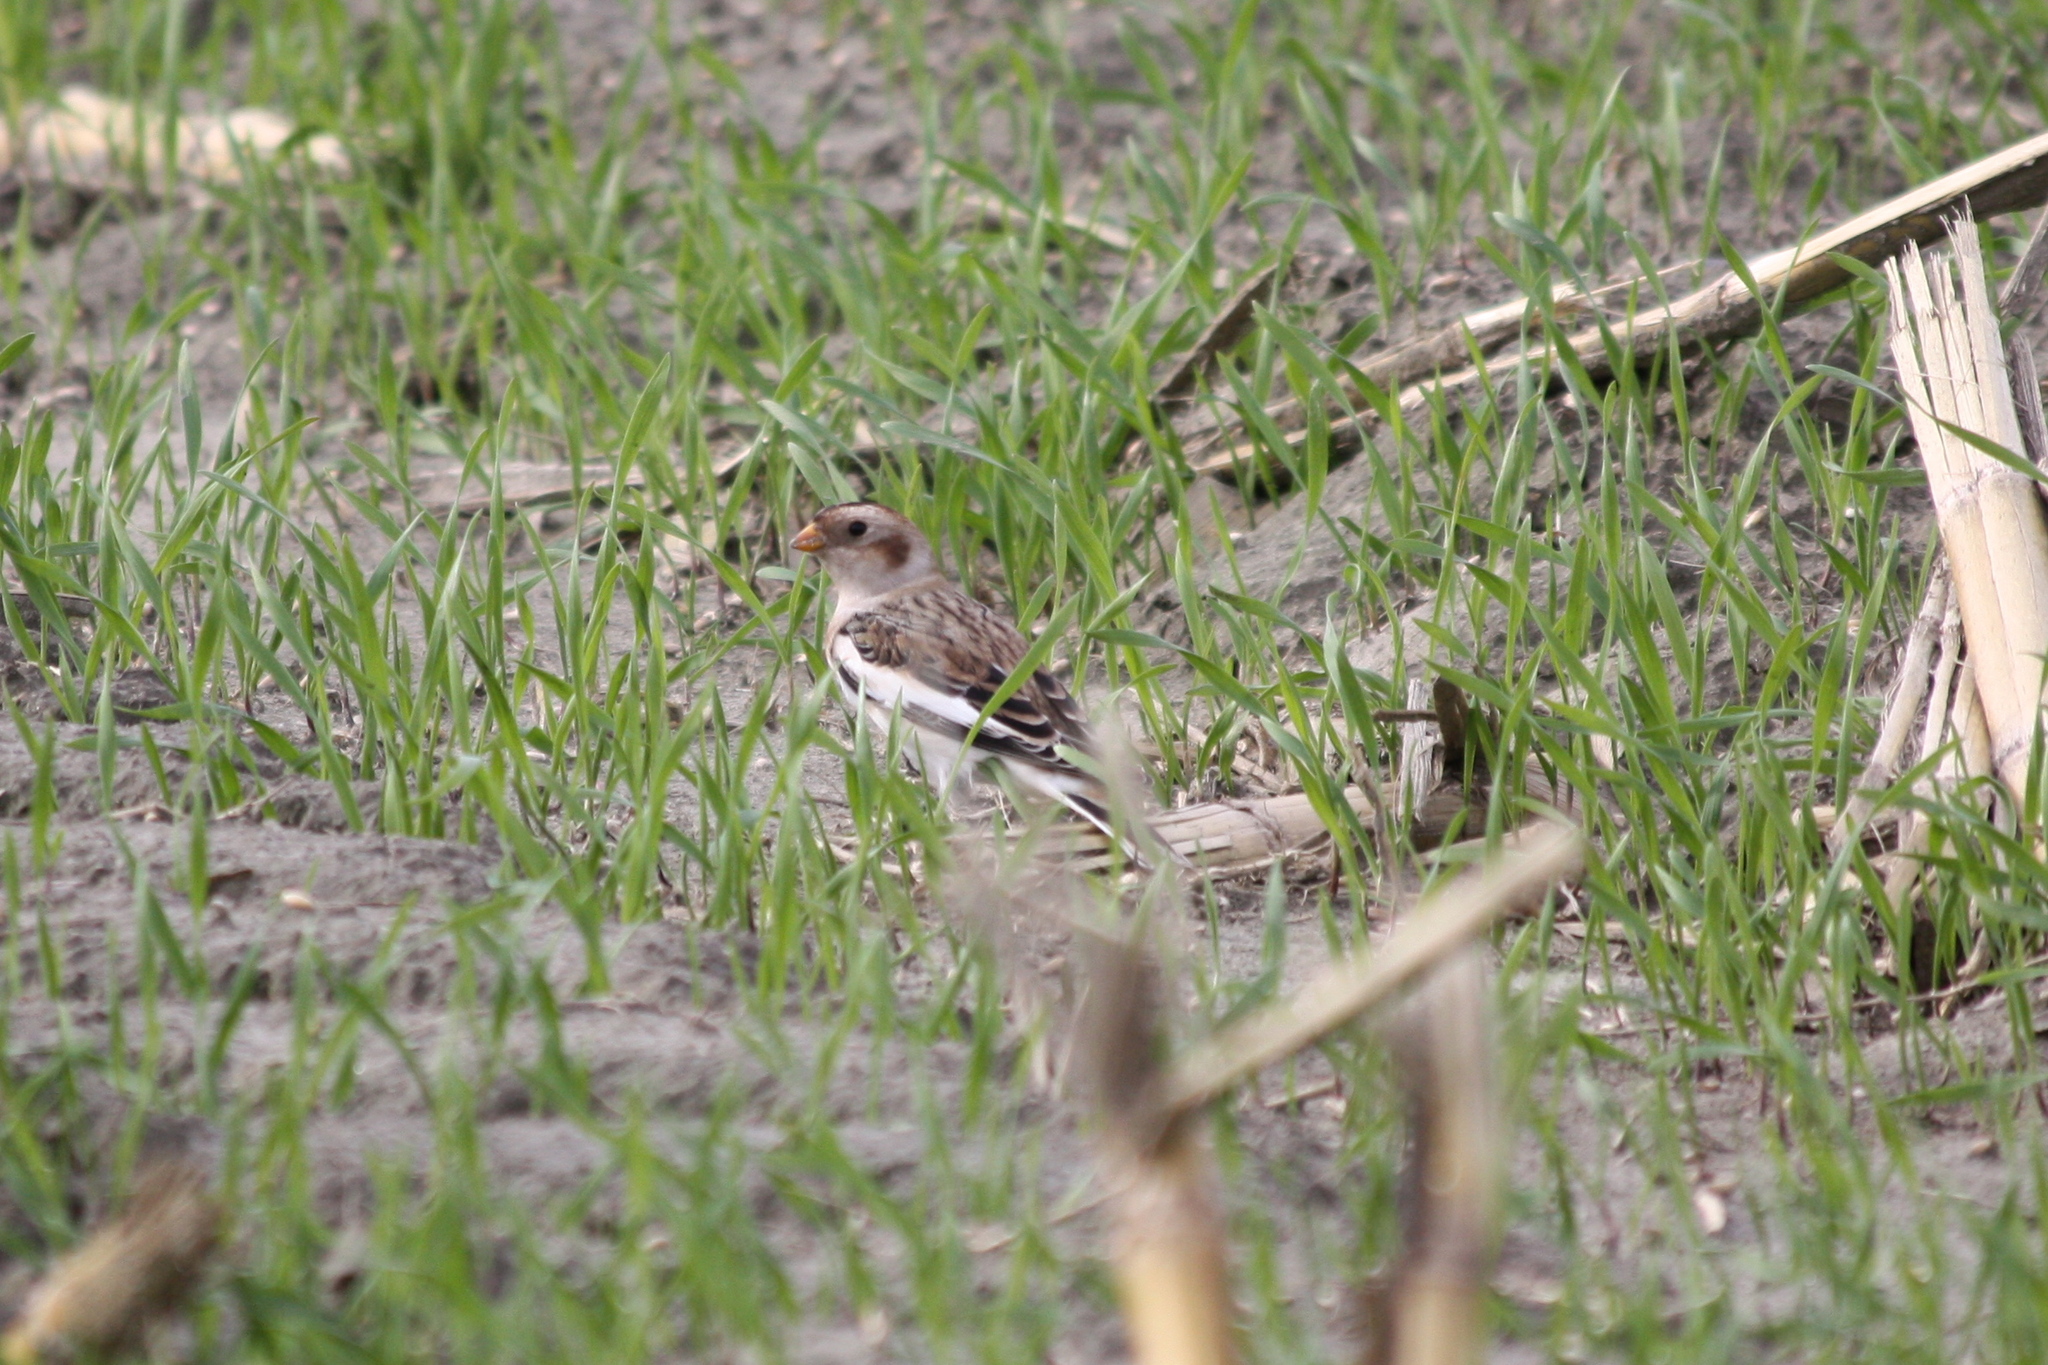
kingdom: Animalia
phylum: Chordata
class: Aves
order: Passeriformes
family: Calcariidae
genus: Plectrophenax
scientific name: Plectrophenax nivalis
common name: Snow bunting
